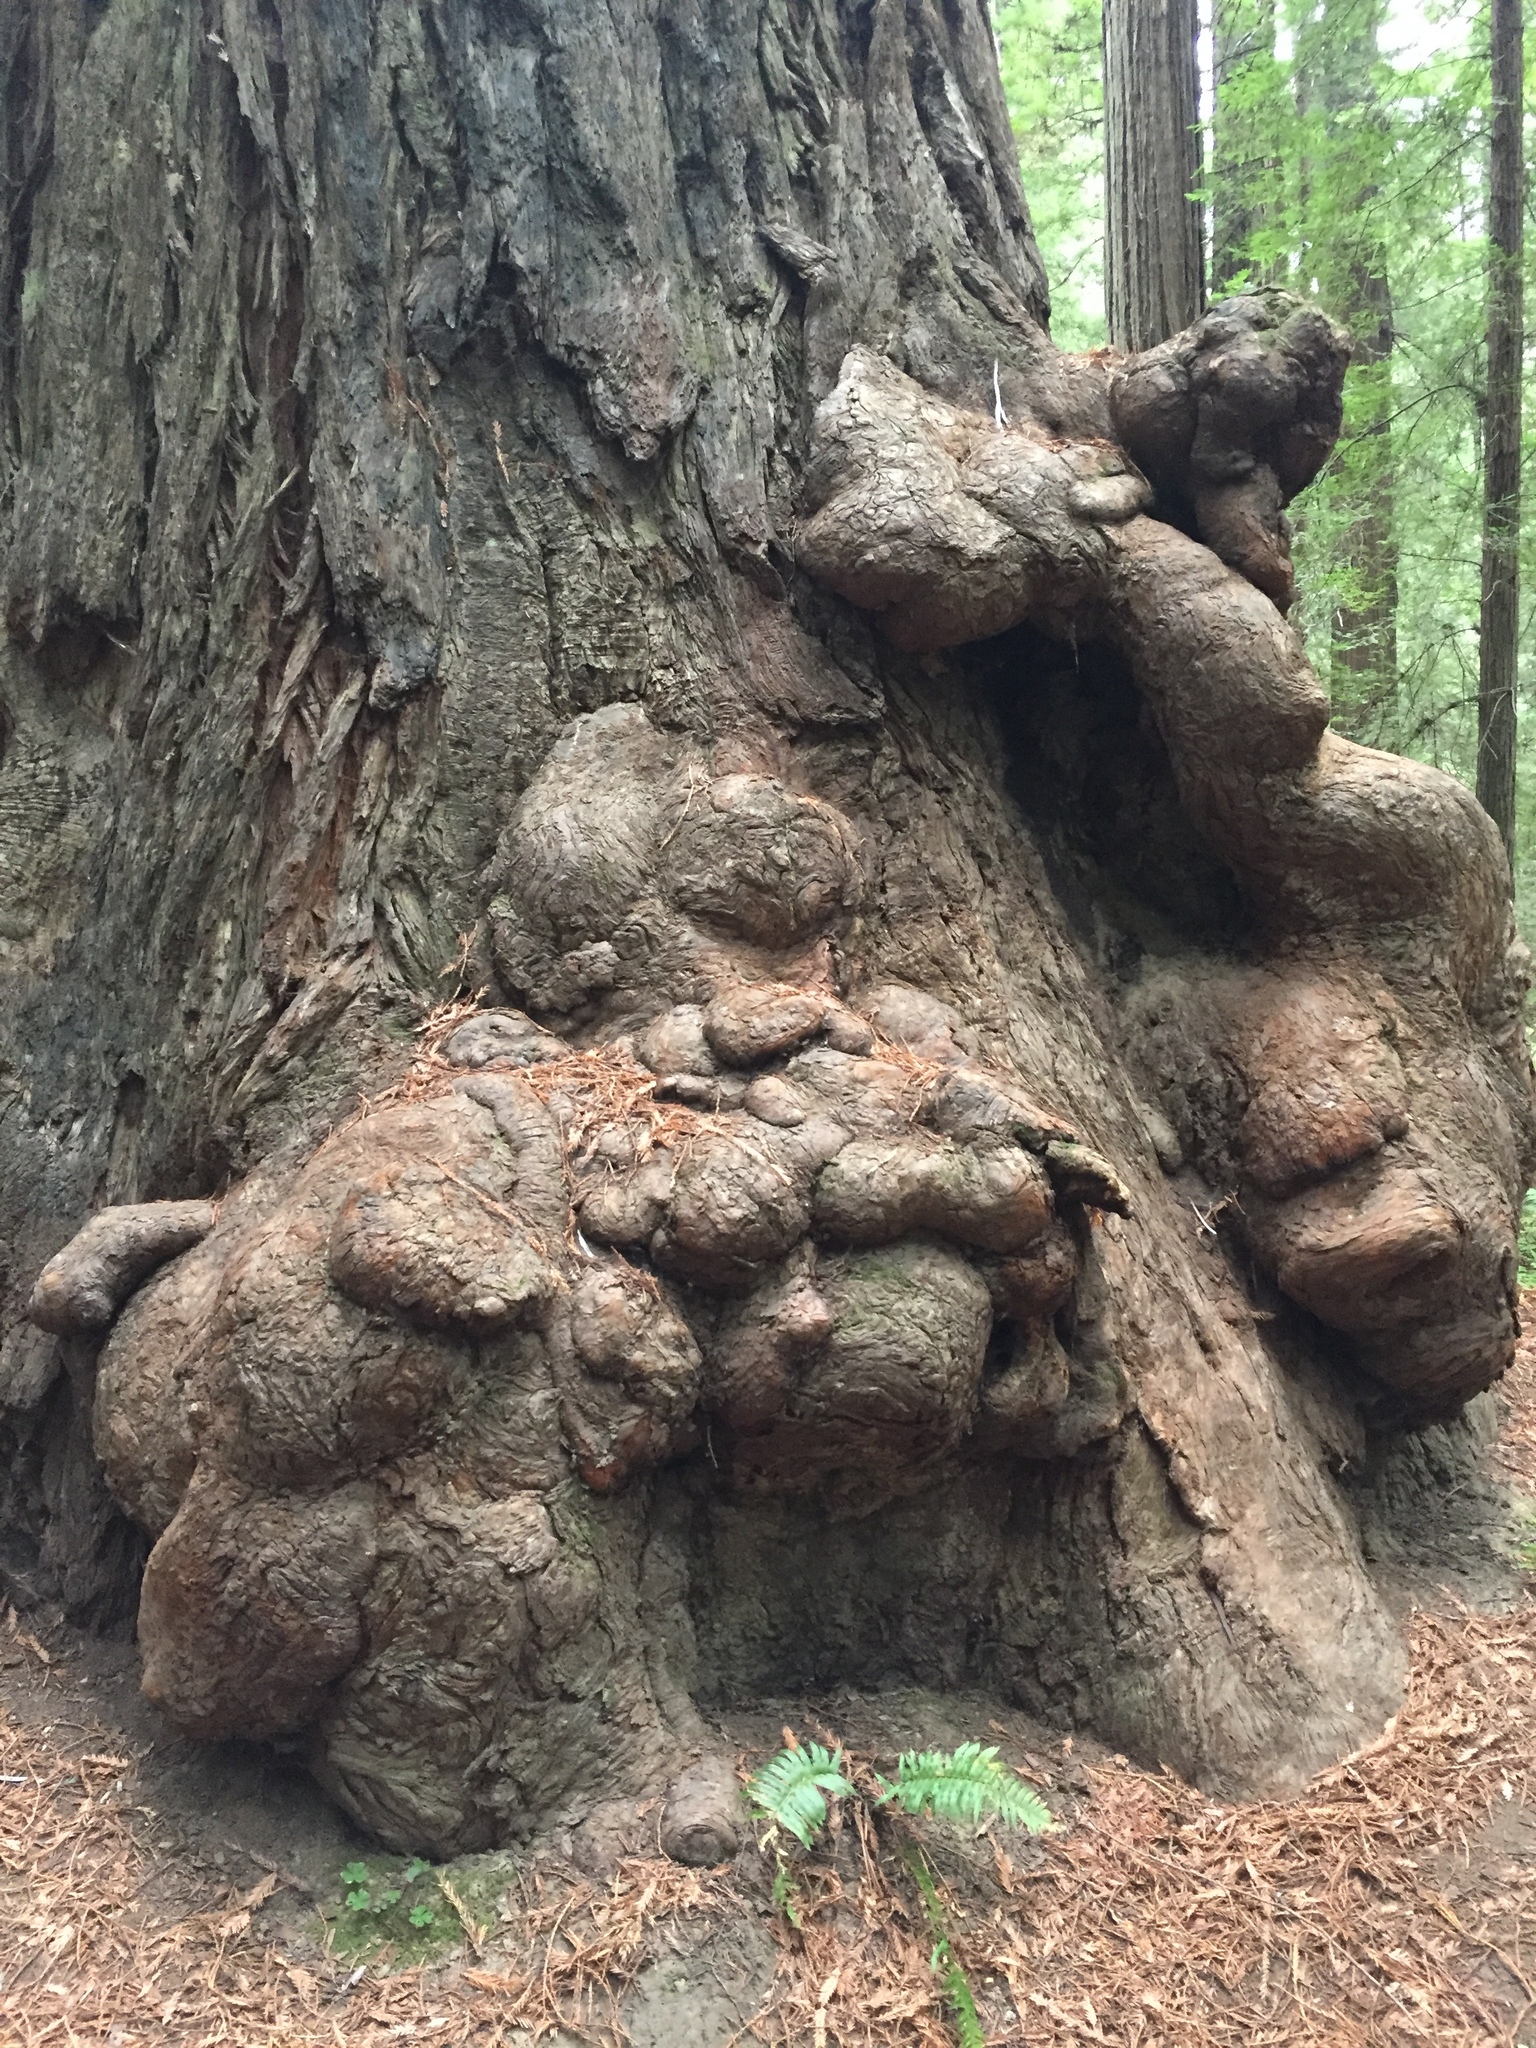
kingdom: Plantae
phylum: Tracheophyta
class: Pinopsida
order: Pinales
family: Cupressaceae
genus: Sequoia
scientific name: Sequoia sempervirens
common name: Coast redwood
